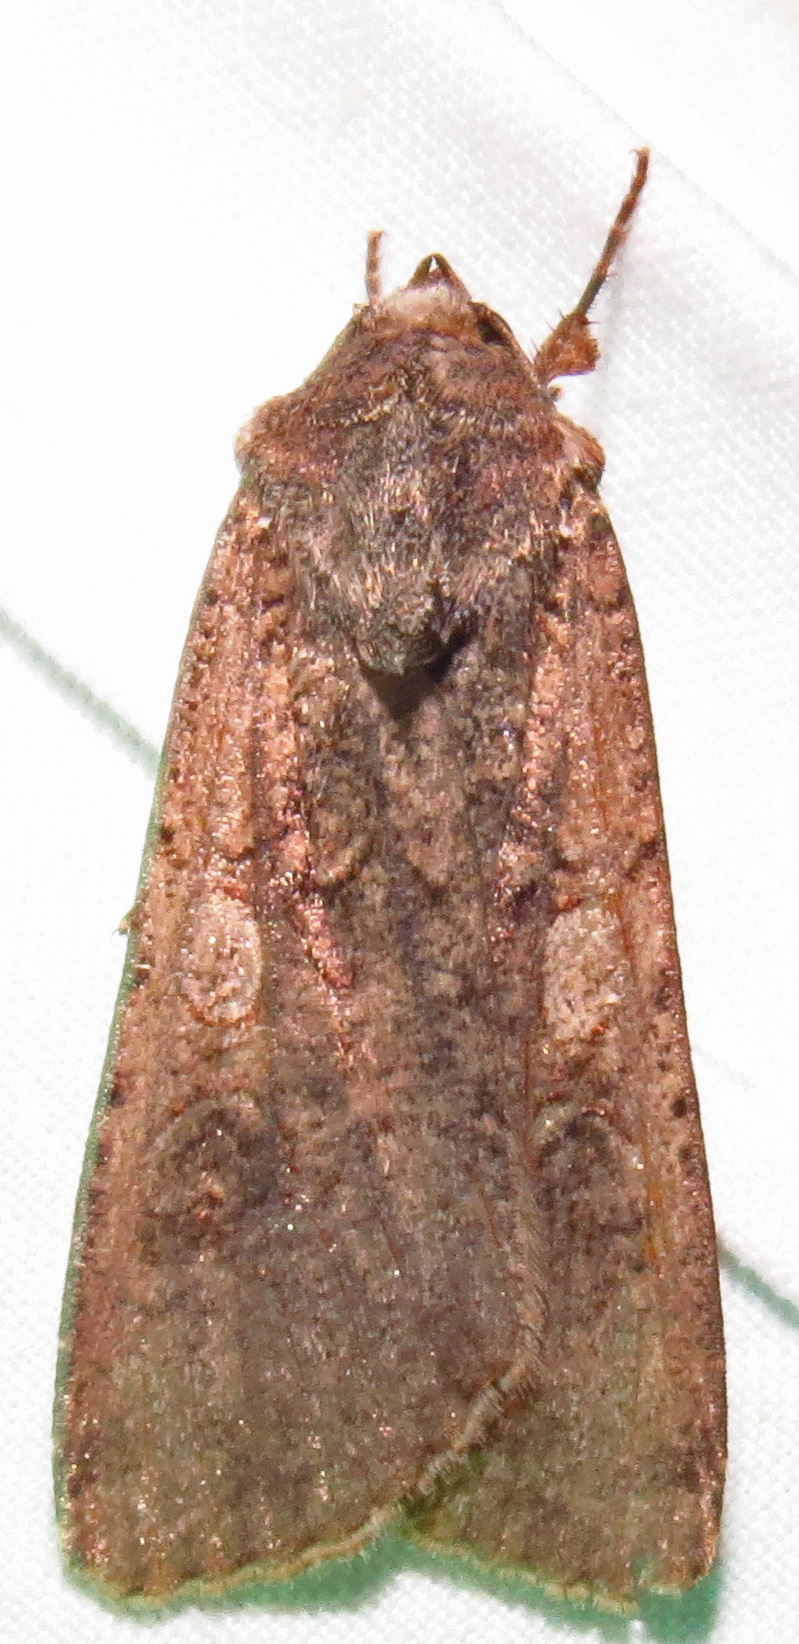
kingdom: Animalia
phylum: Arthropoda
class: Insecta
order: Lepidoptera
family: Noctuidae
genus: Peridroma
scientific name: Peridroma saucia
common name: Pearly underwing
